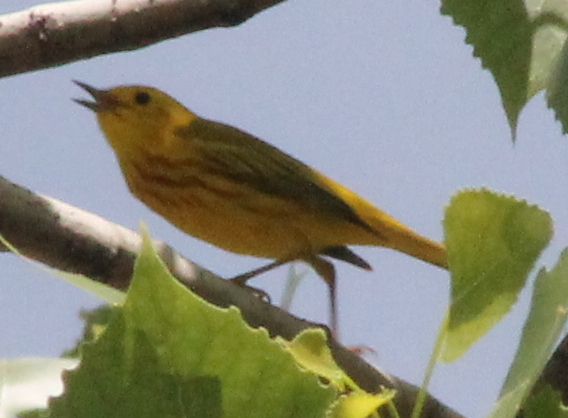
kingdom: Animalia
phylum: Chordata
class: Aves
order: Passeriformes
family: Parulidae
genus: Setophaga
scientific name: Setophaga petechia
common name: Yellow warbler
